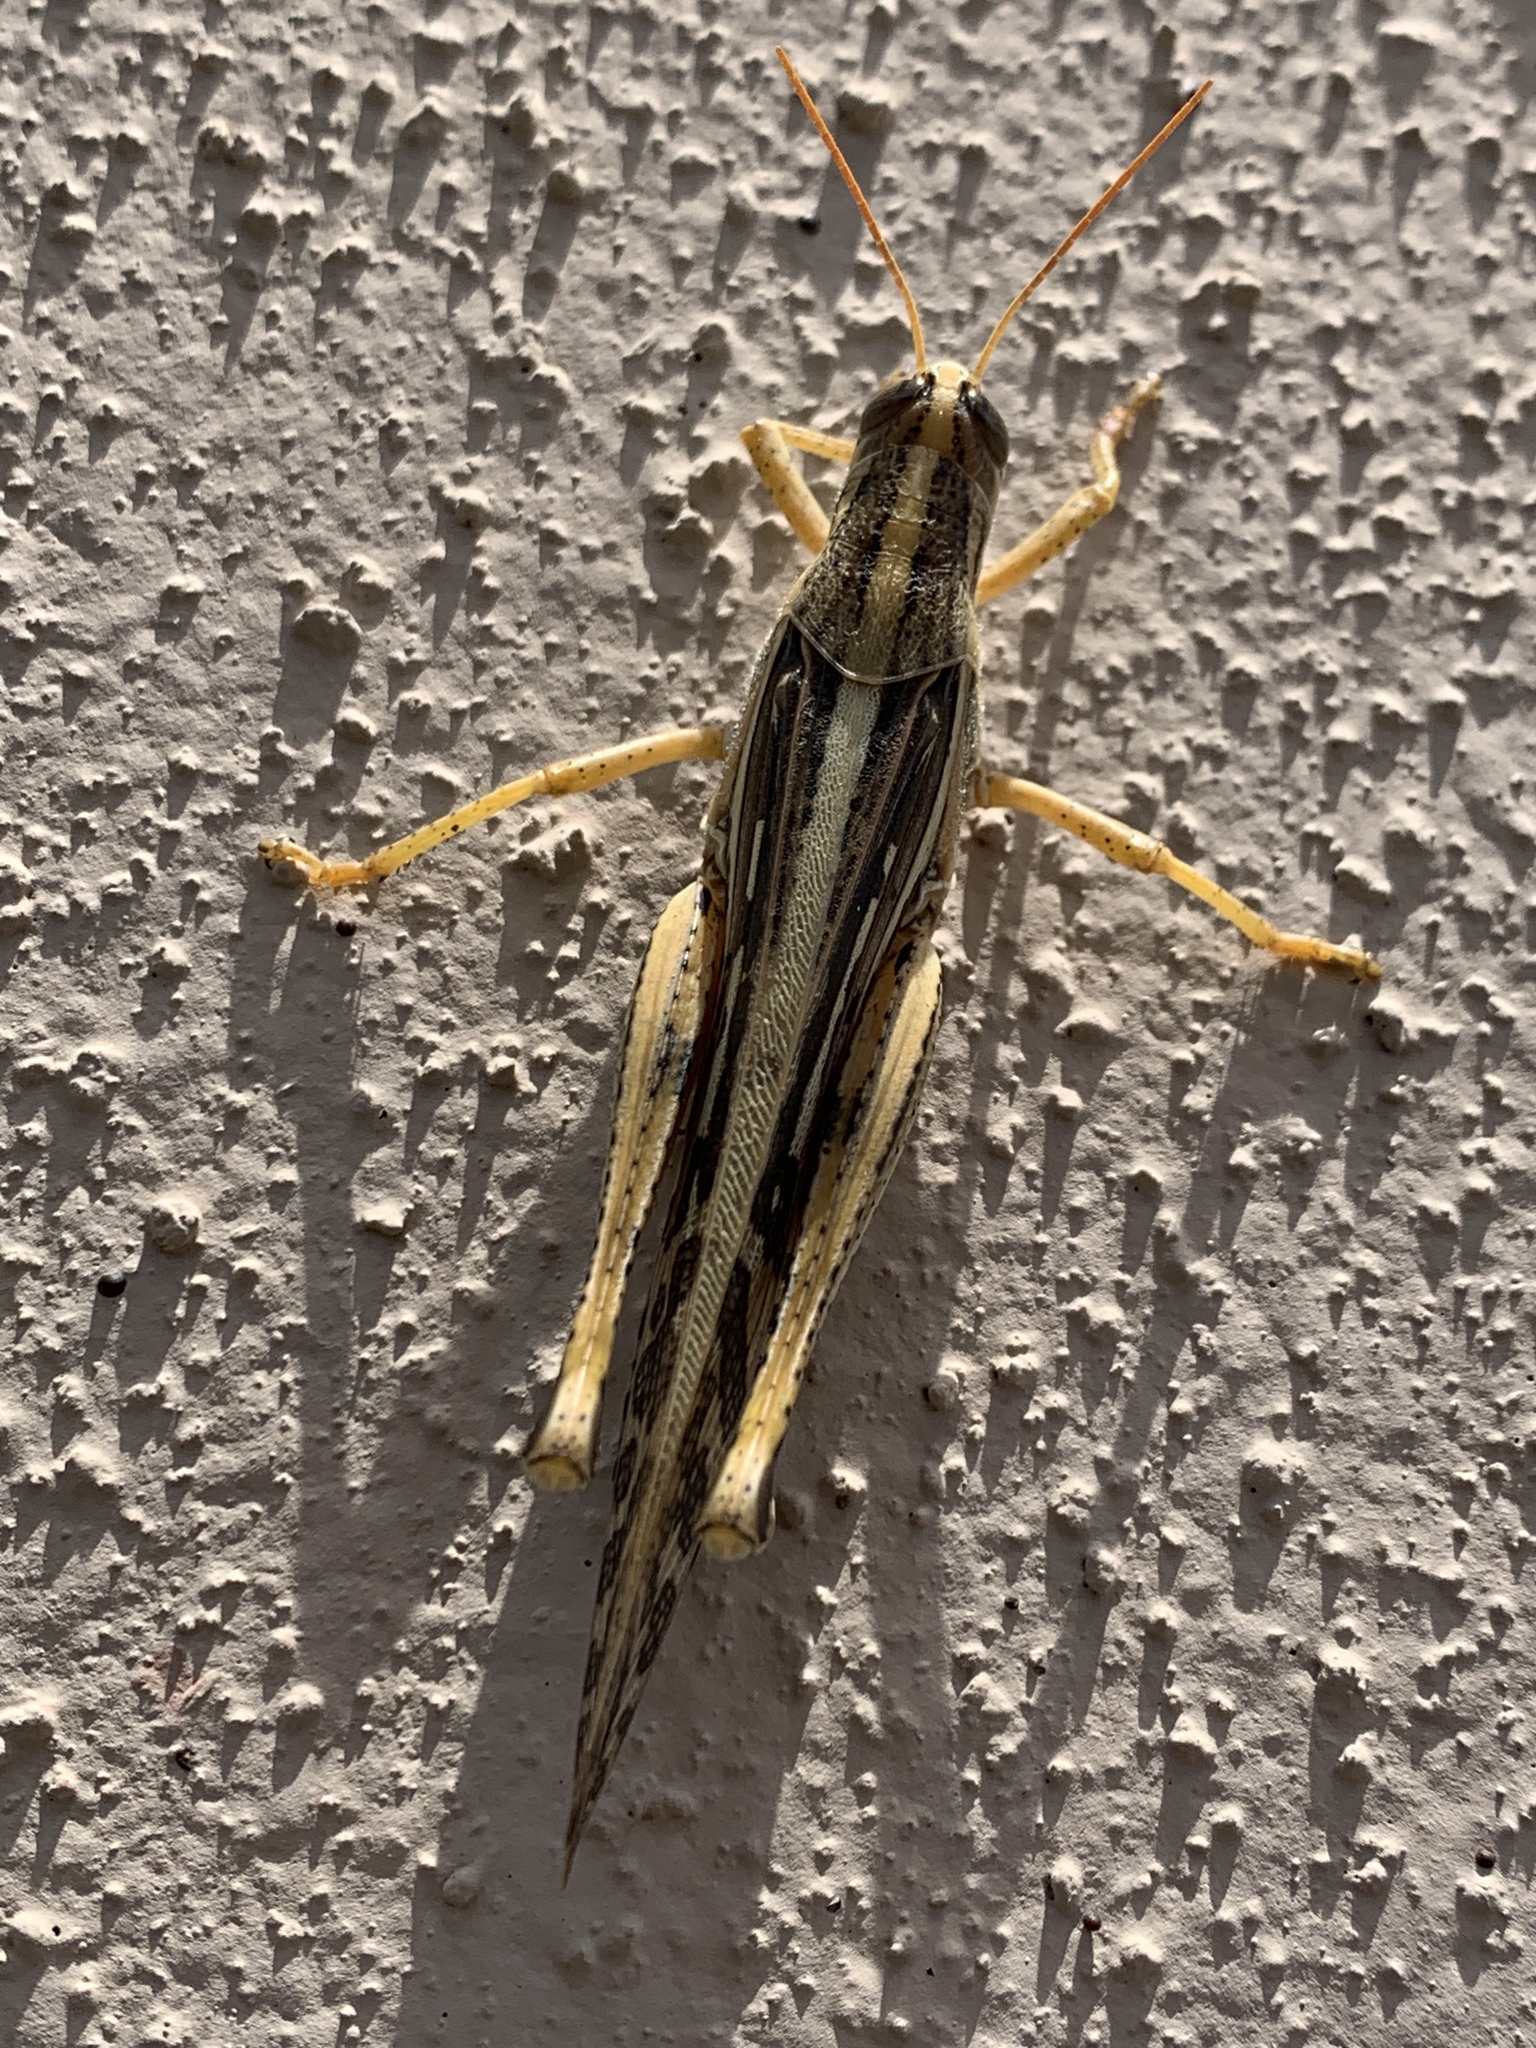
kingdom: Animalia
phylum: Arthropoda
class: Insecta
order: Orthoptera
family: Acrididae
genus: Schistocerca
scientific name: Schistocerca americana
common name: American bird locust
